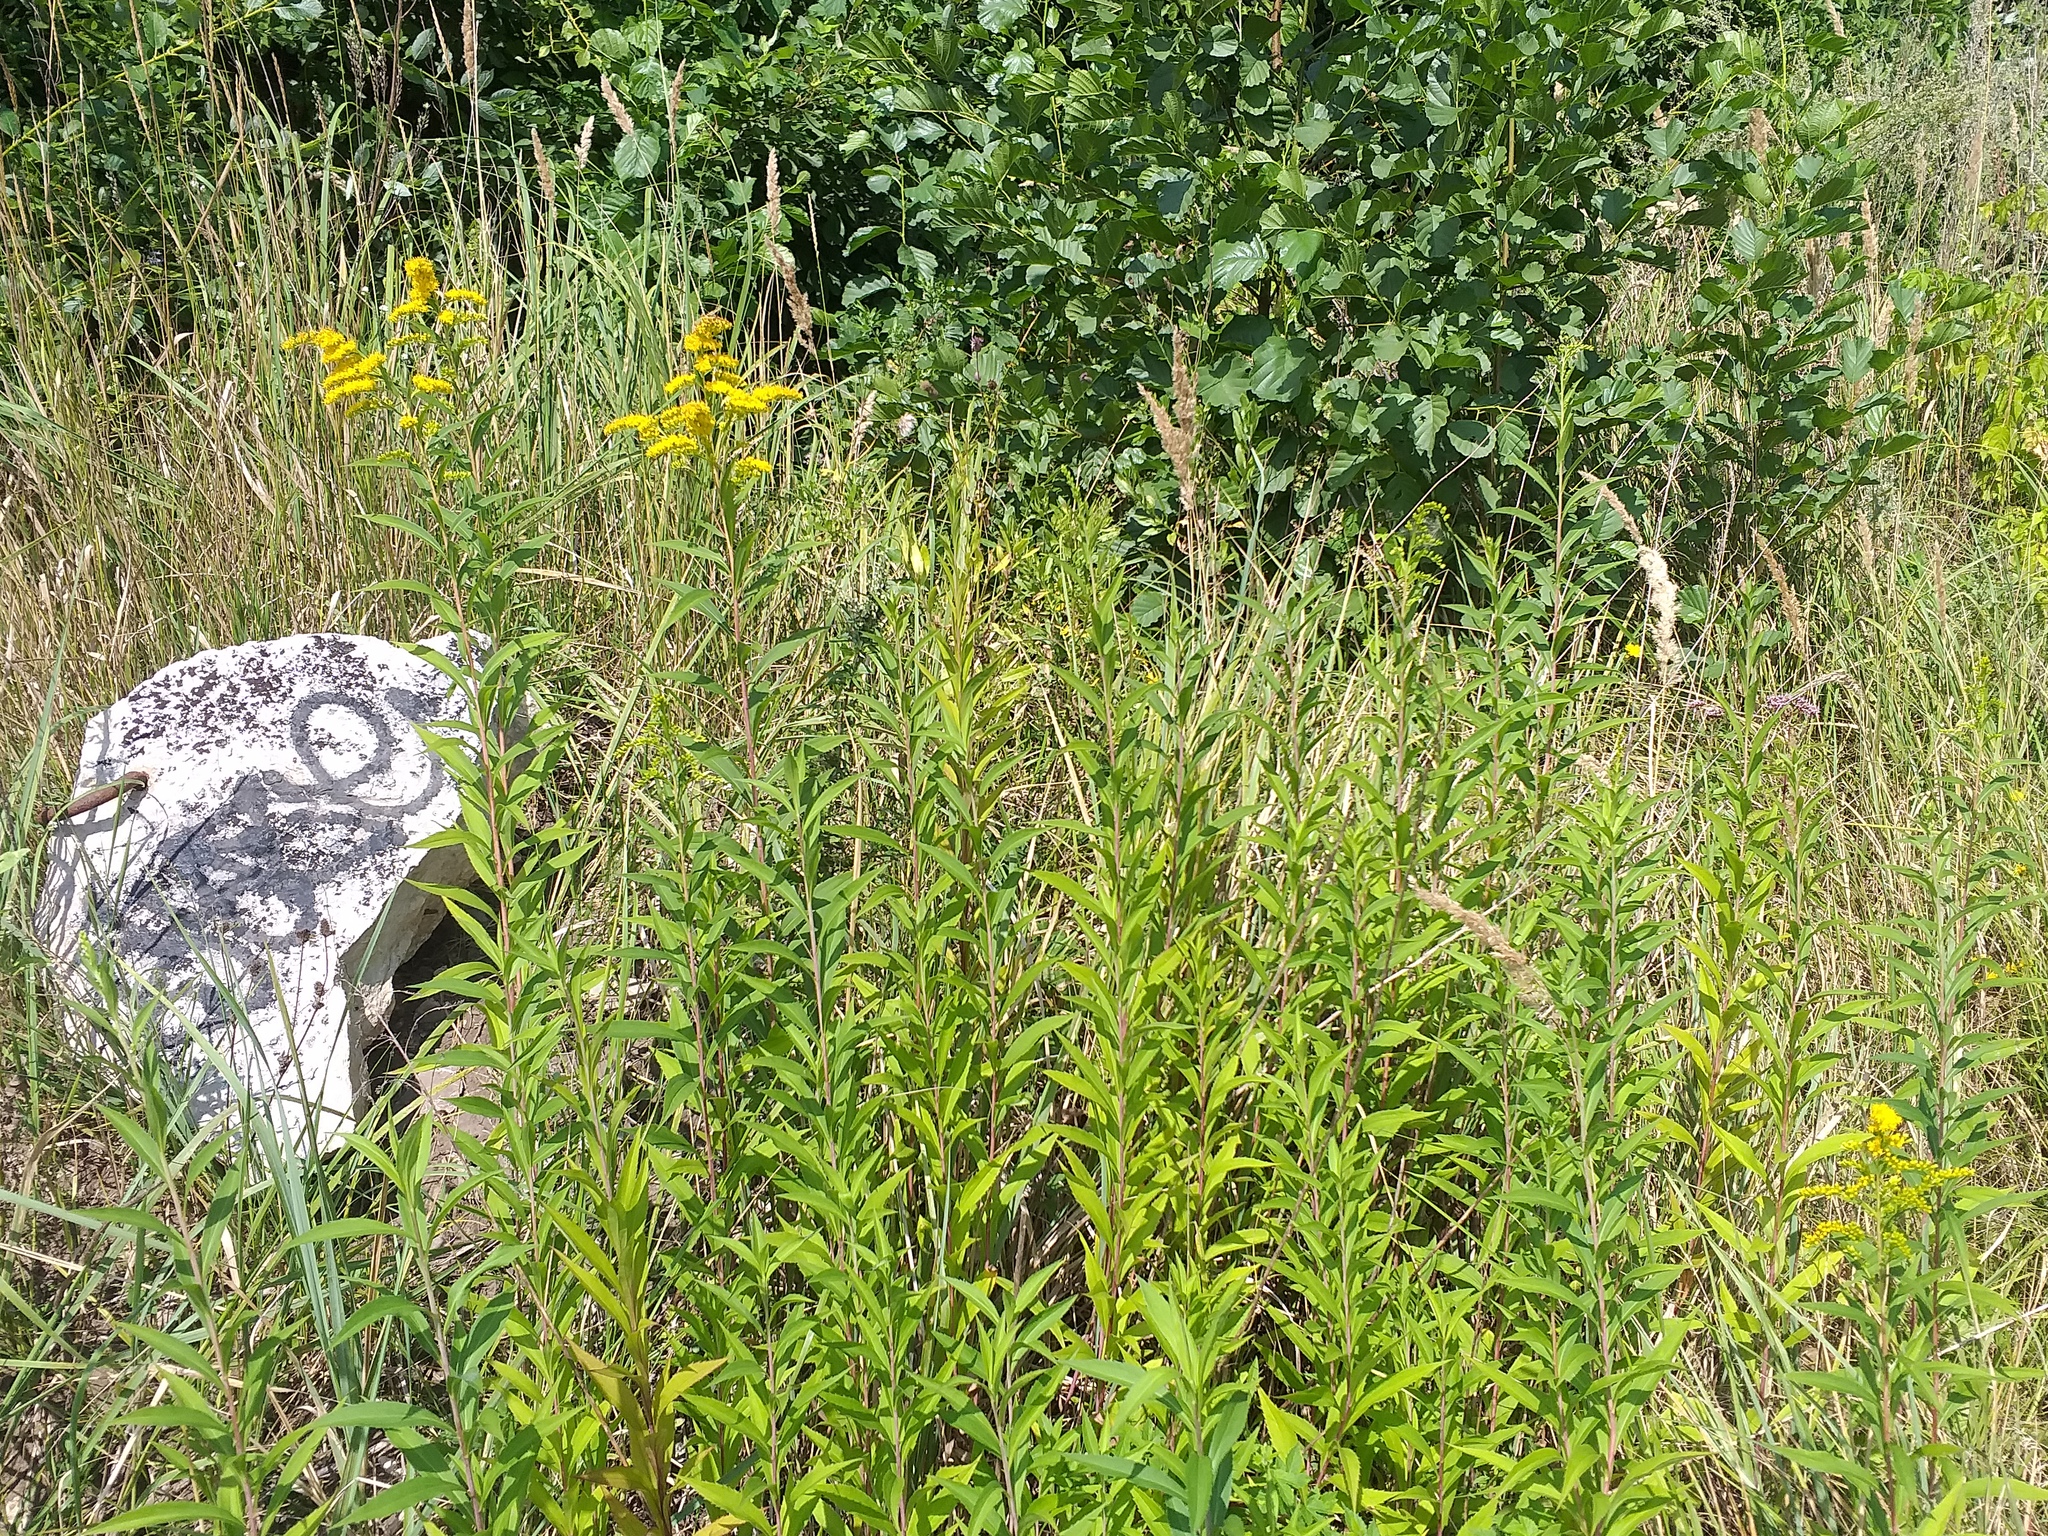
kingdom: Plantae
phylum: Tracheophyta
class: Magnoliopsida
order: Asterales
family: Asteraceae
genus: Solidago
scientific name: Solidago gigantea
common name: Giant goldenrod
